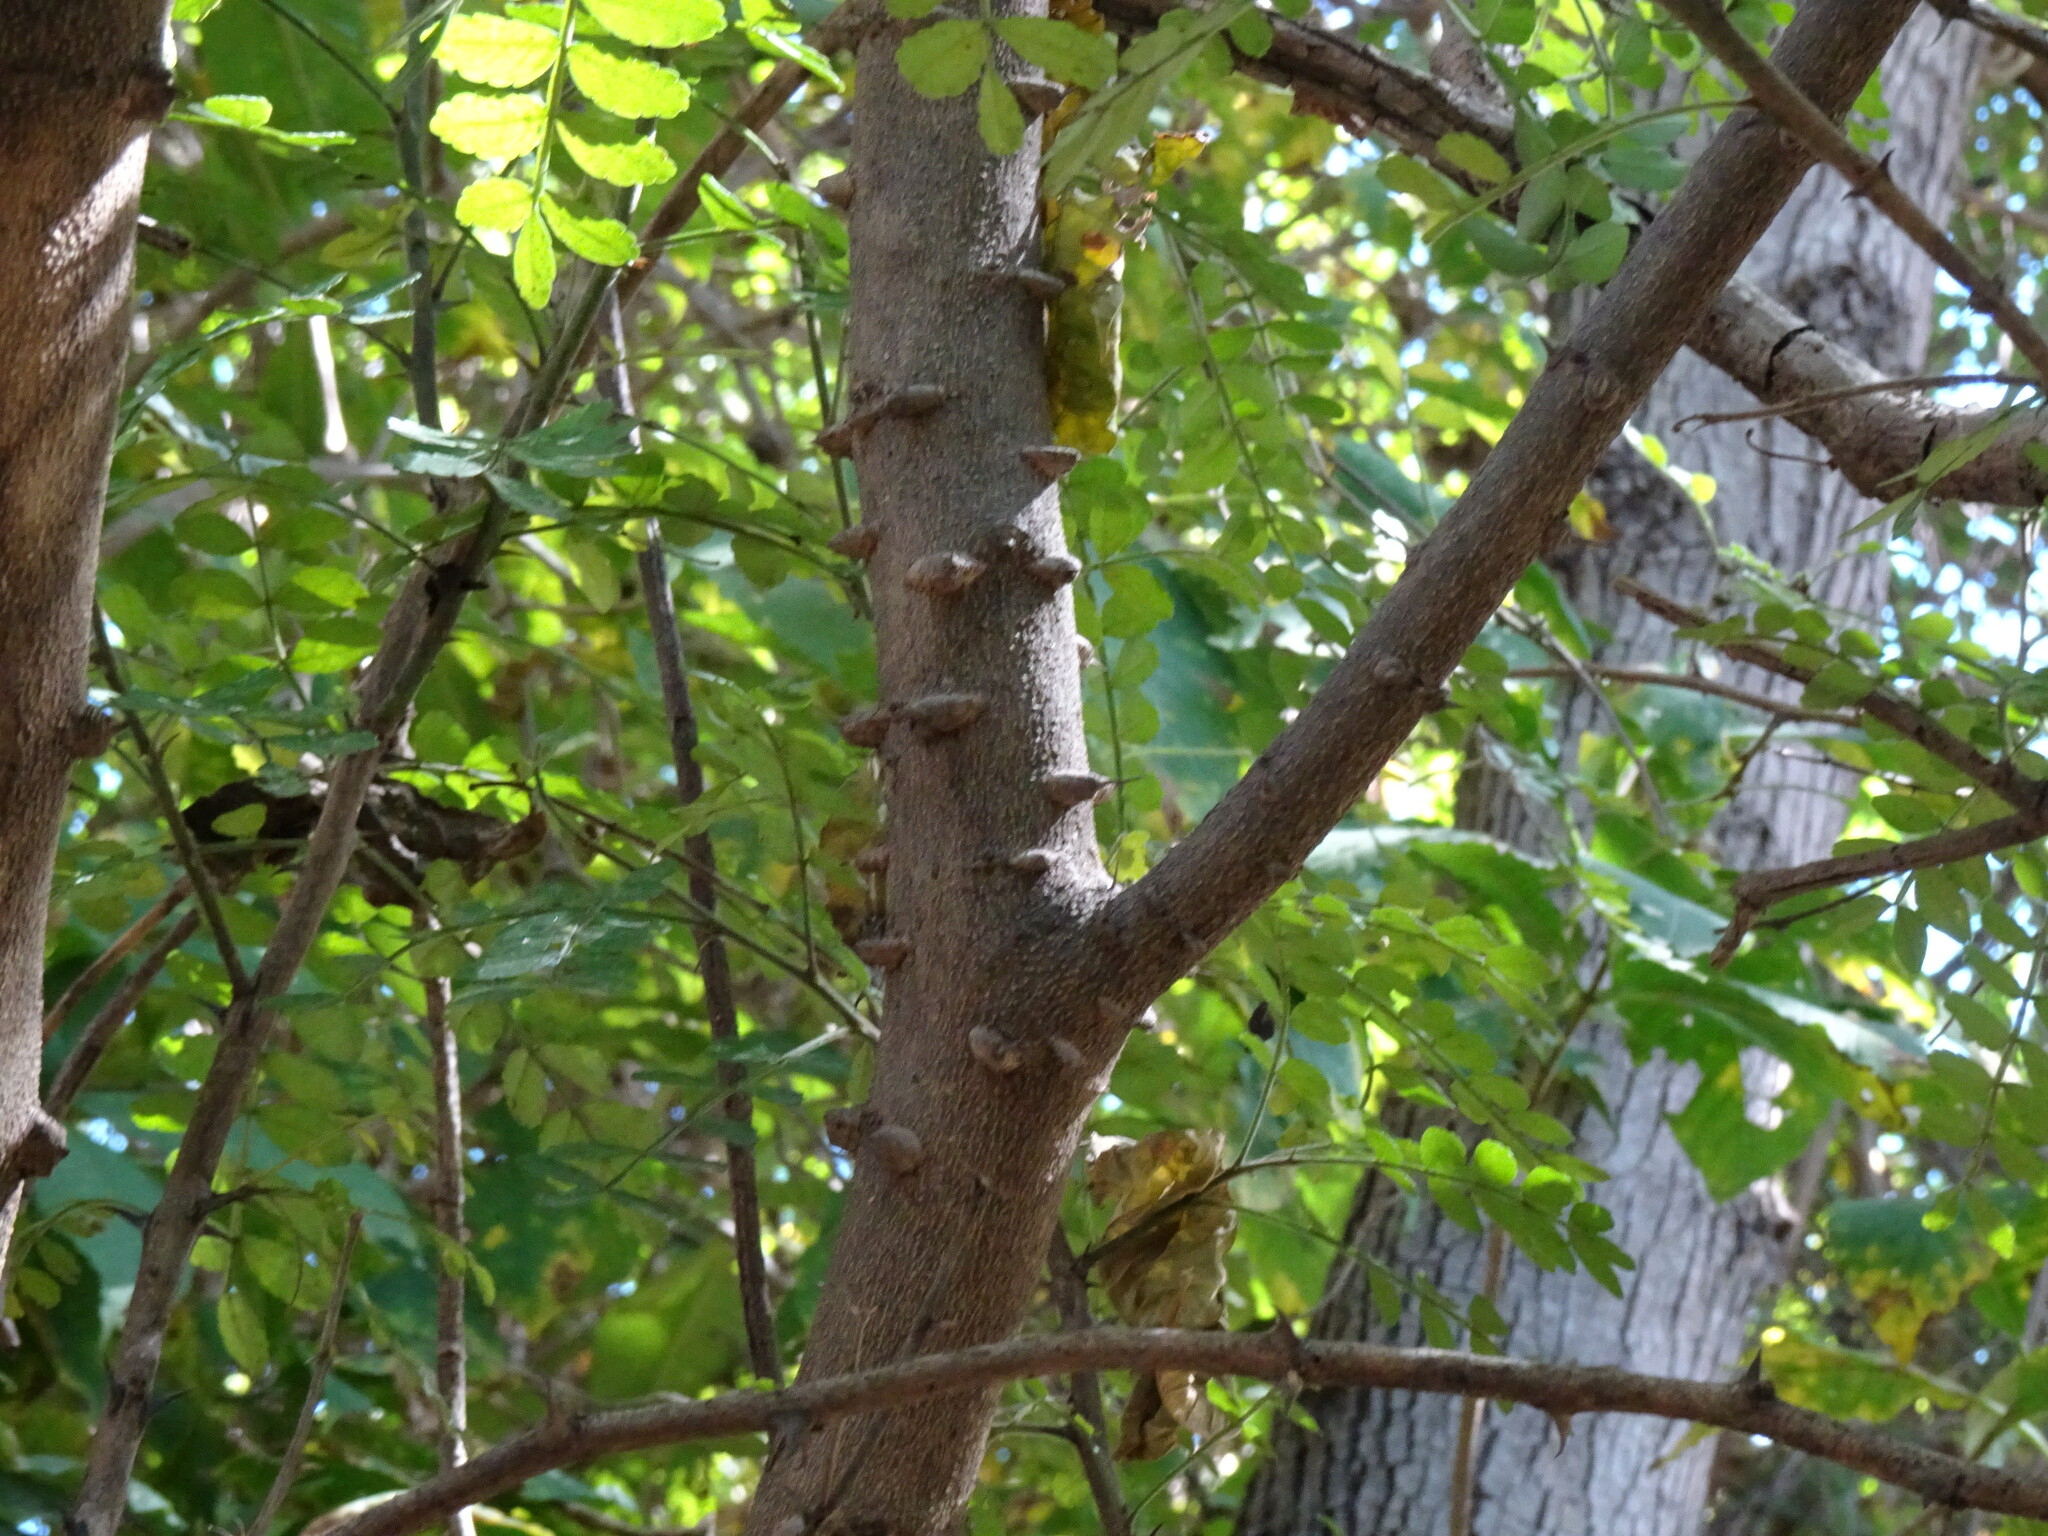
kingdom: Plantae
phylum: Tracheophyta
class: Magnoliopsida
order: Sapindales
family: Rutaceae
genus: Zanthoxylum
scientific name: Zanthoxylum fagara
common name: Lime prickly-ash
